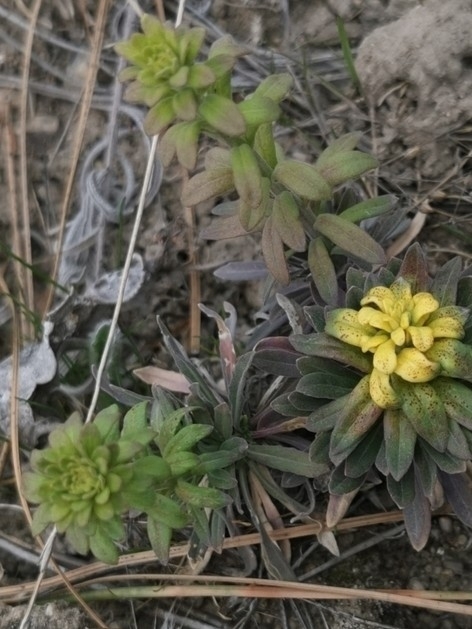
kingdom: Plantae
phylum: Tracheophyta
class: Magnoliopsida
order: Brassicales
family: Brassicaceae
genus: Boechera
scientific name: Boechera retrofracta
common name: Dangling suncress
